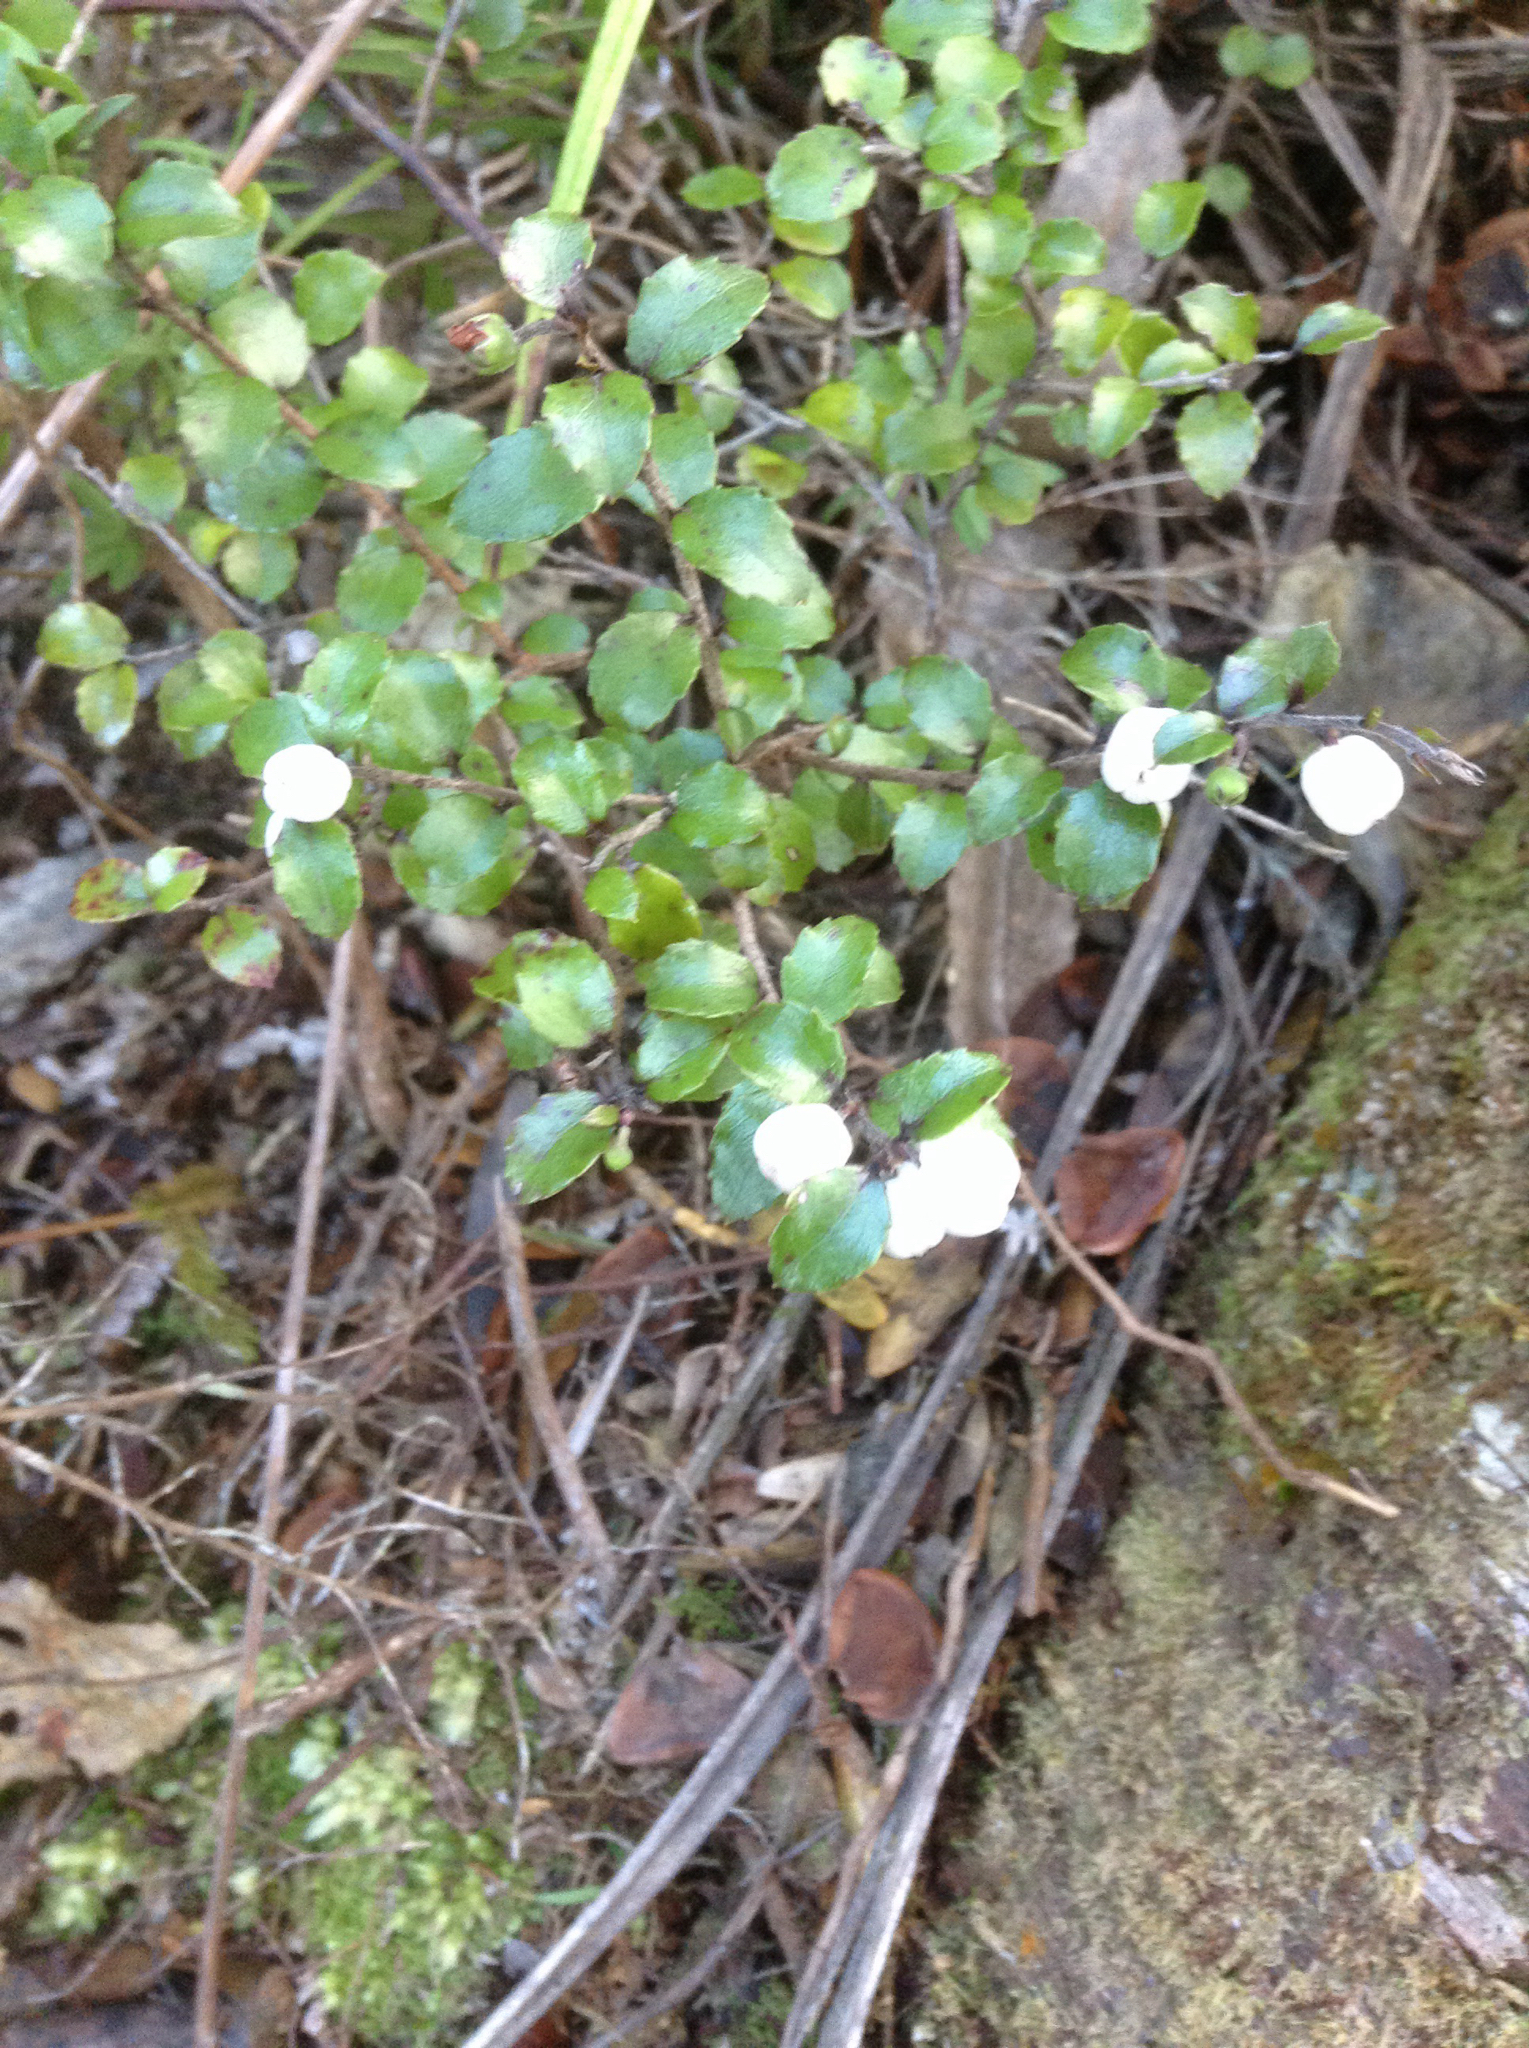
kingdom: Plantae
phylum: Tracheophyta
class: Magnoliopsida
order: Ericales
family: Ericaceae
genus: Gaultheria
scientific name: Gaultheria antipoda
